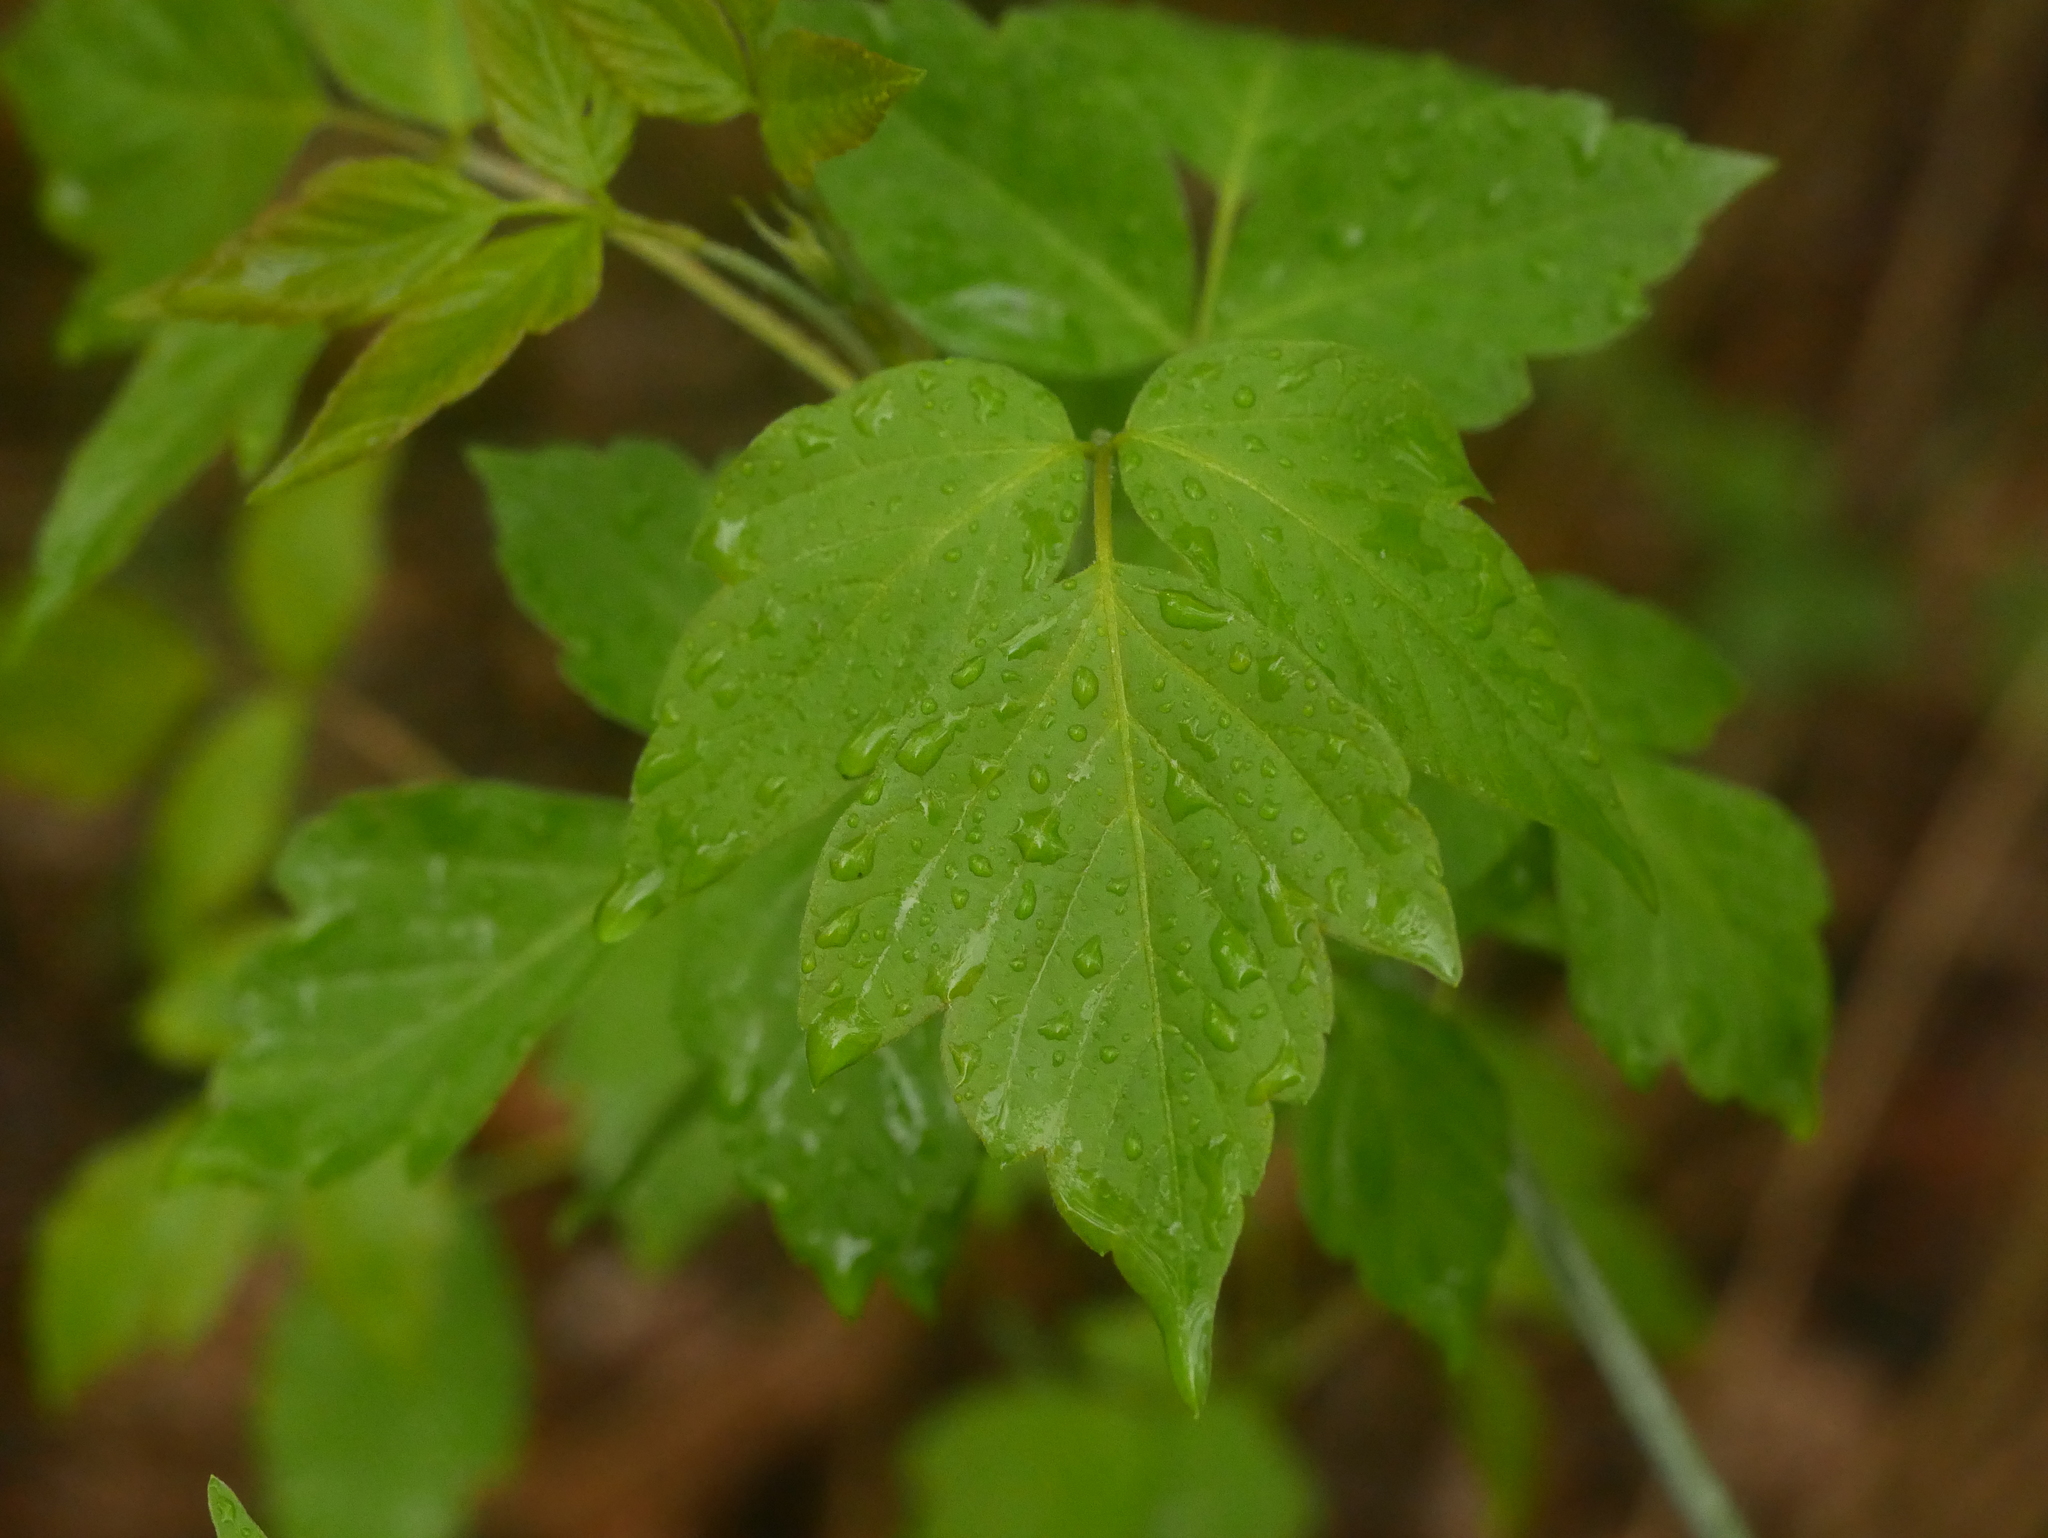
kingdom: Plantae
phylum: Tracheophyta
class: Magnoliopsida
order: Sapindales
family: Sapindaceae
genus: Acer
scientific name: Acer negundo
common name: Ashleaf maple
